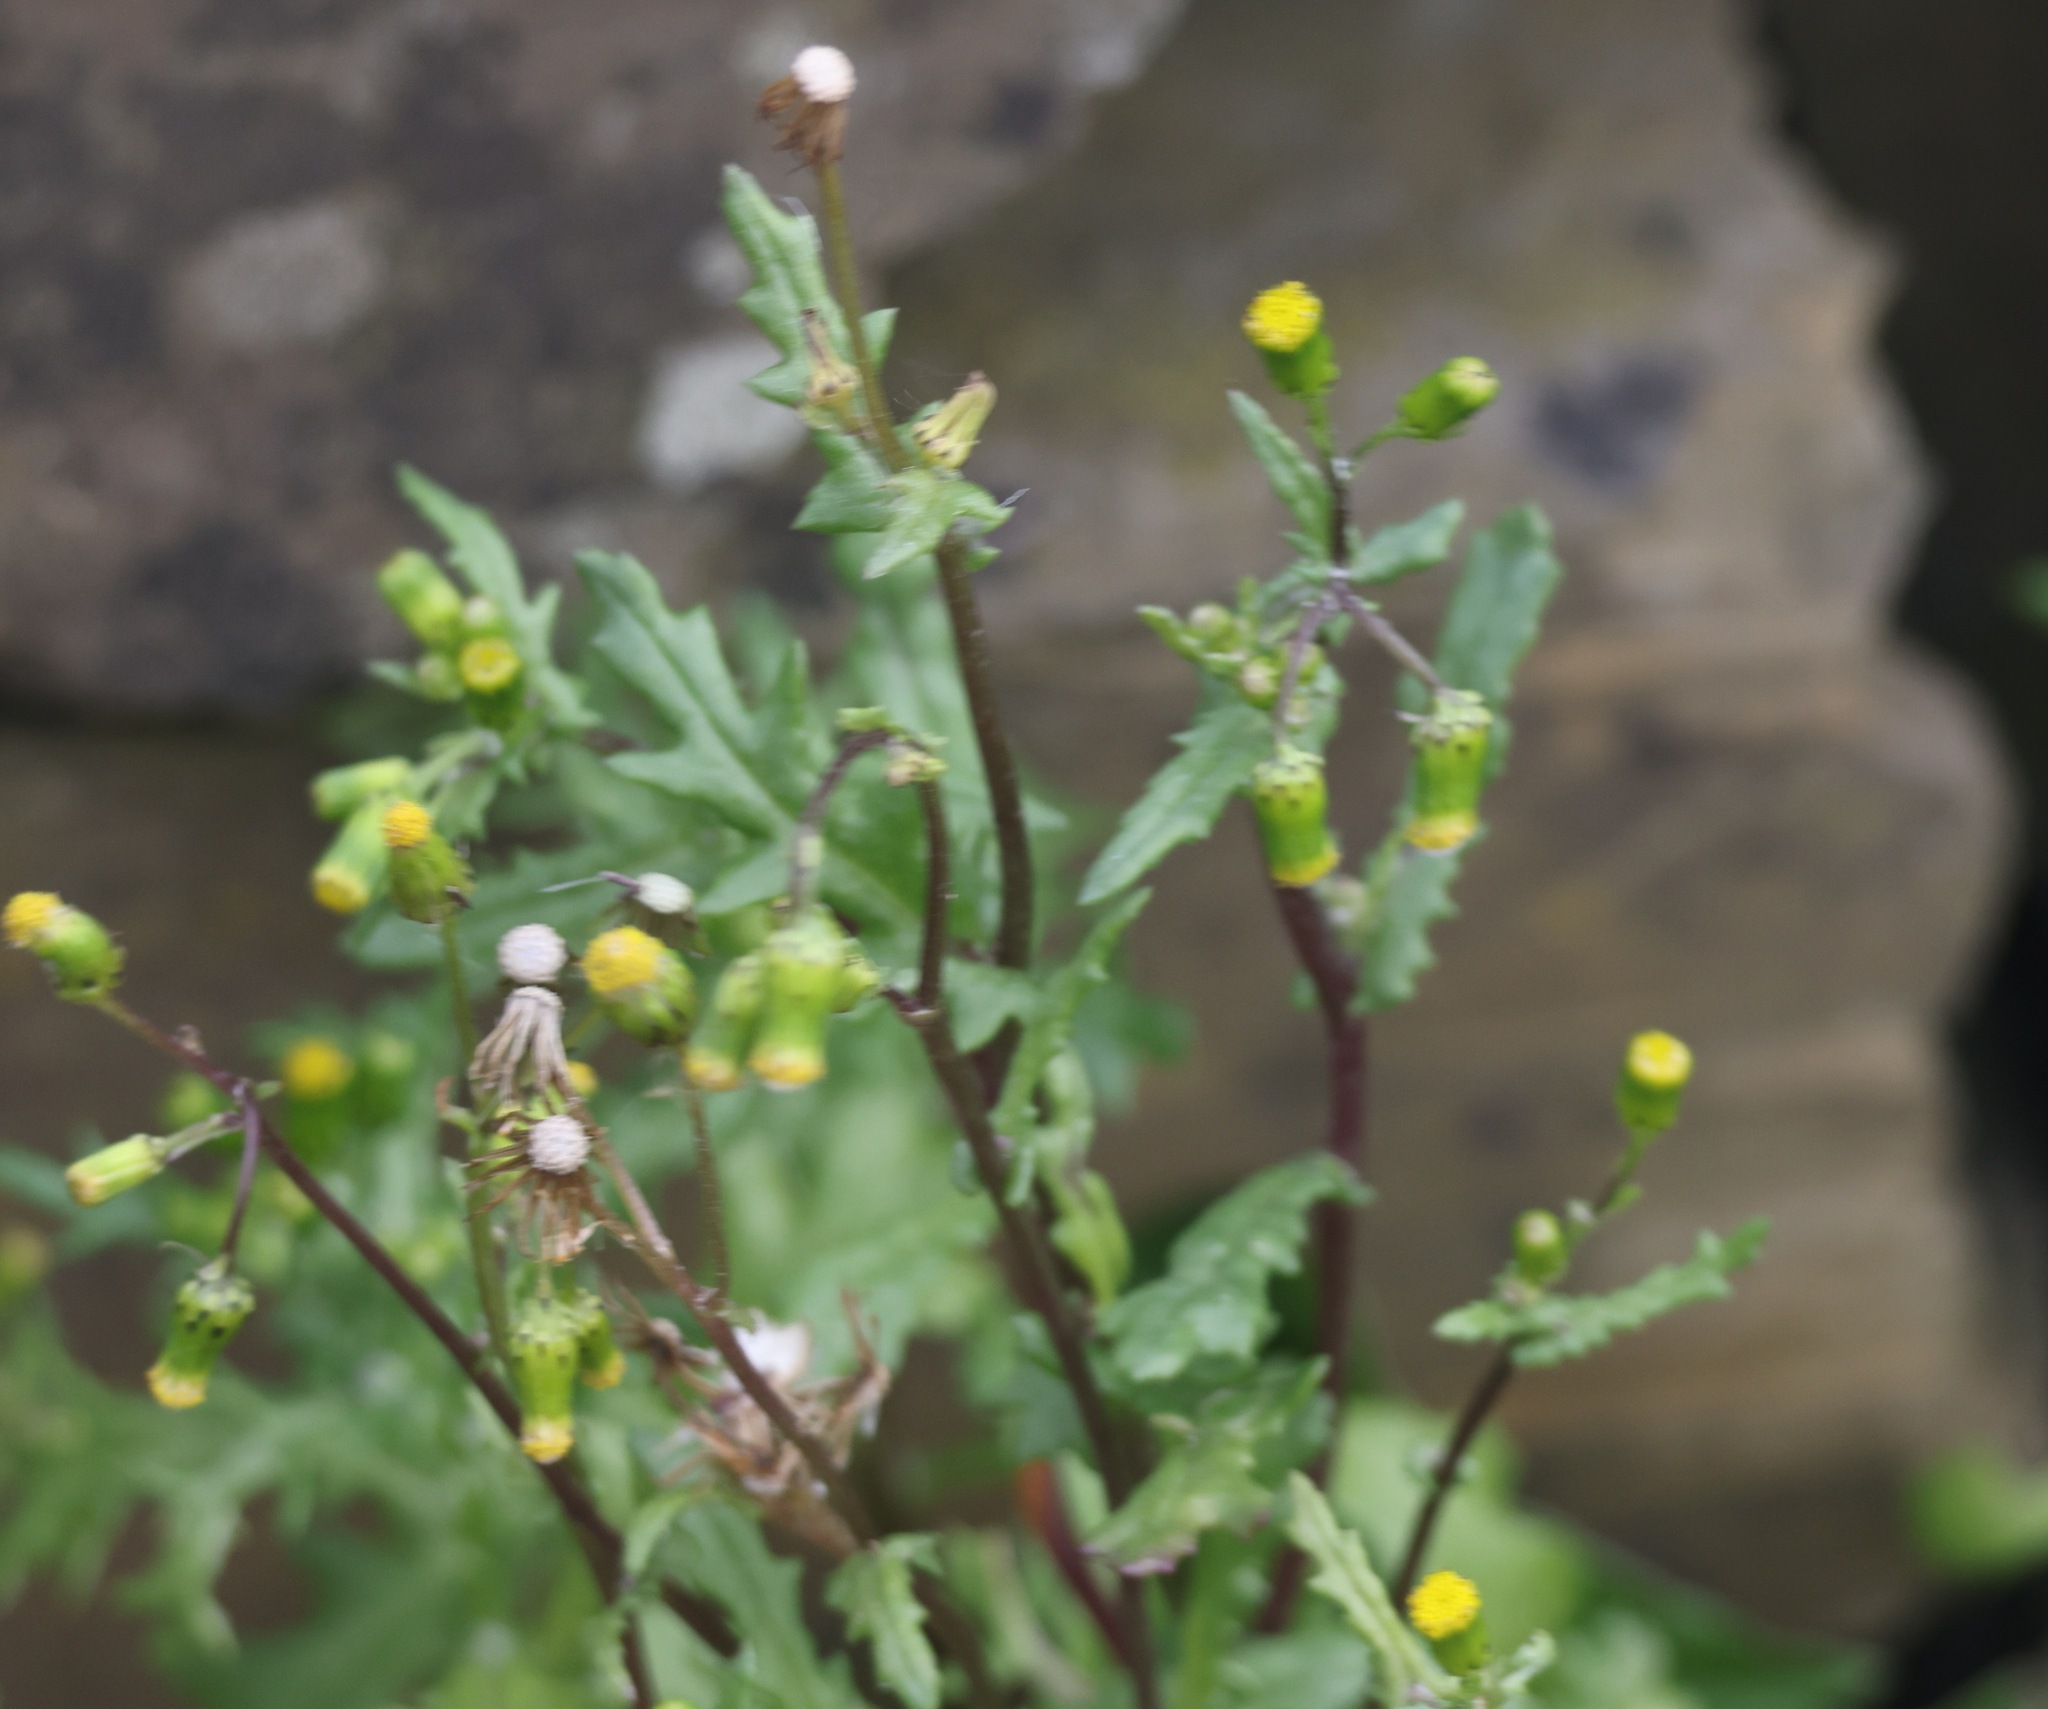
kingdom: Plantae
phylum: Tracheophyta
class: Magnoliopsida
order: Asterales
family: Asteraceae
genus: Senecio
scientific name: Senecio vulgaris
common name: Old-man-in-the-spring
